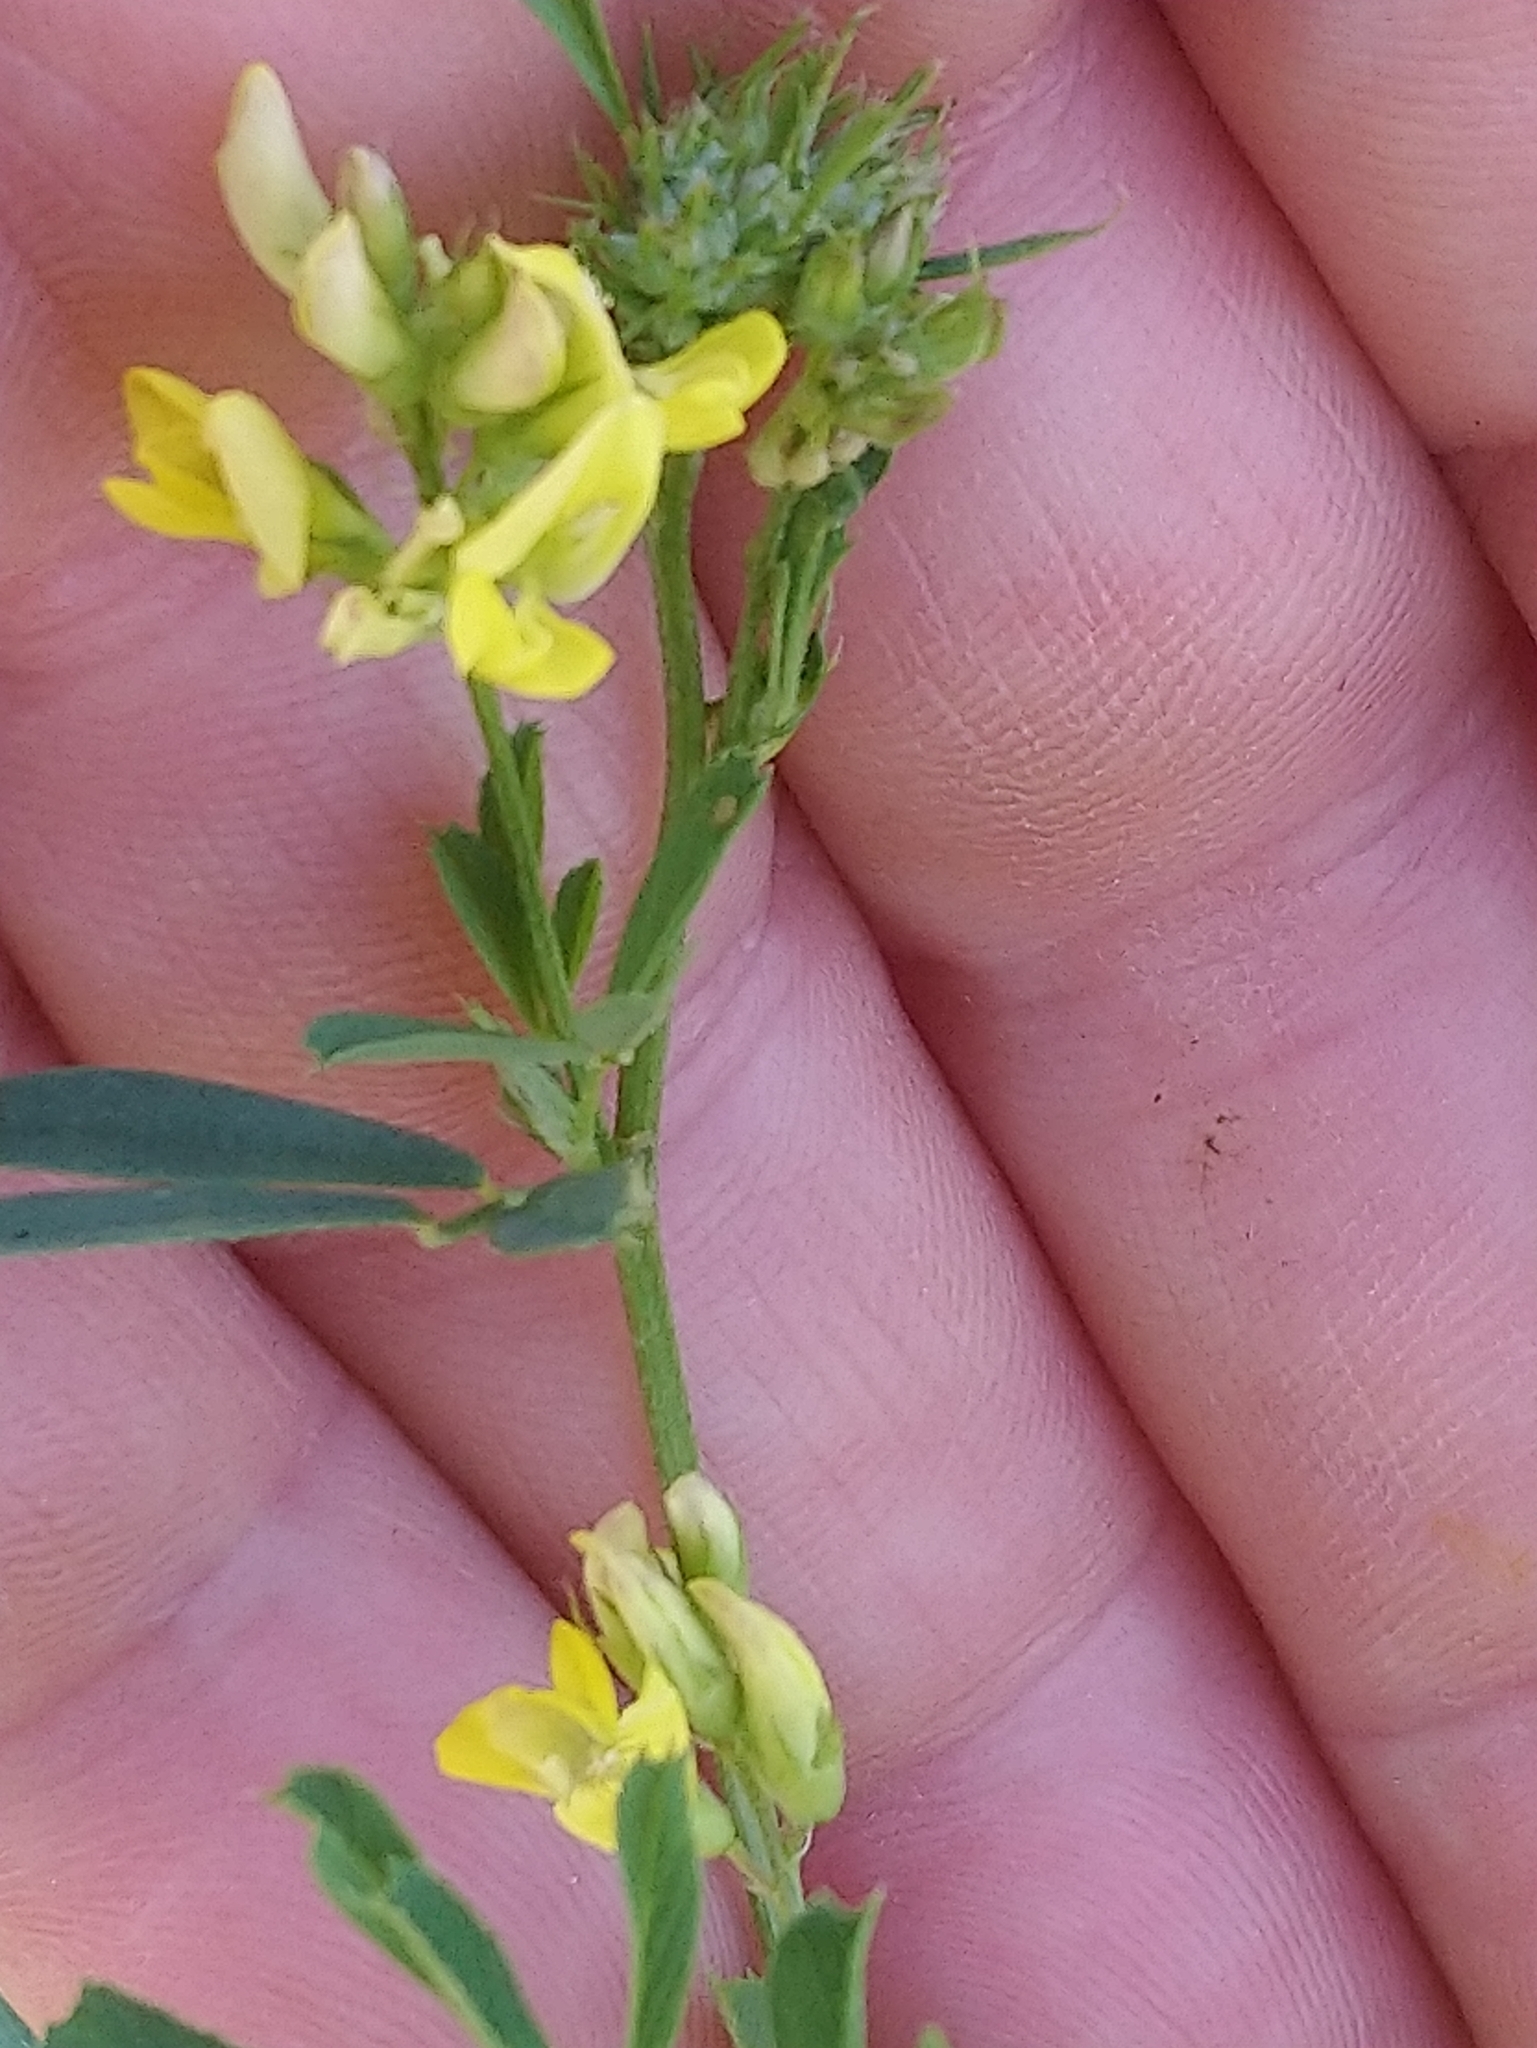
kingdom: Plantae
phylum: Tracheophyta
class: Magnoliopsida
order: Fabales
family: Fabaceae
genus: Medicago
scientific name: Medicago falcata
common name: Sickle medick
